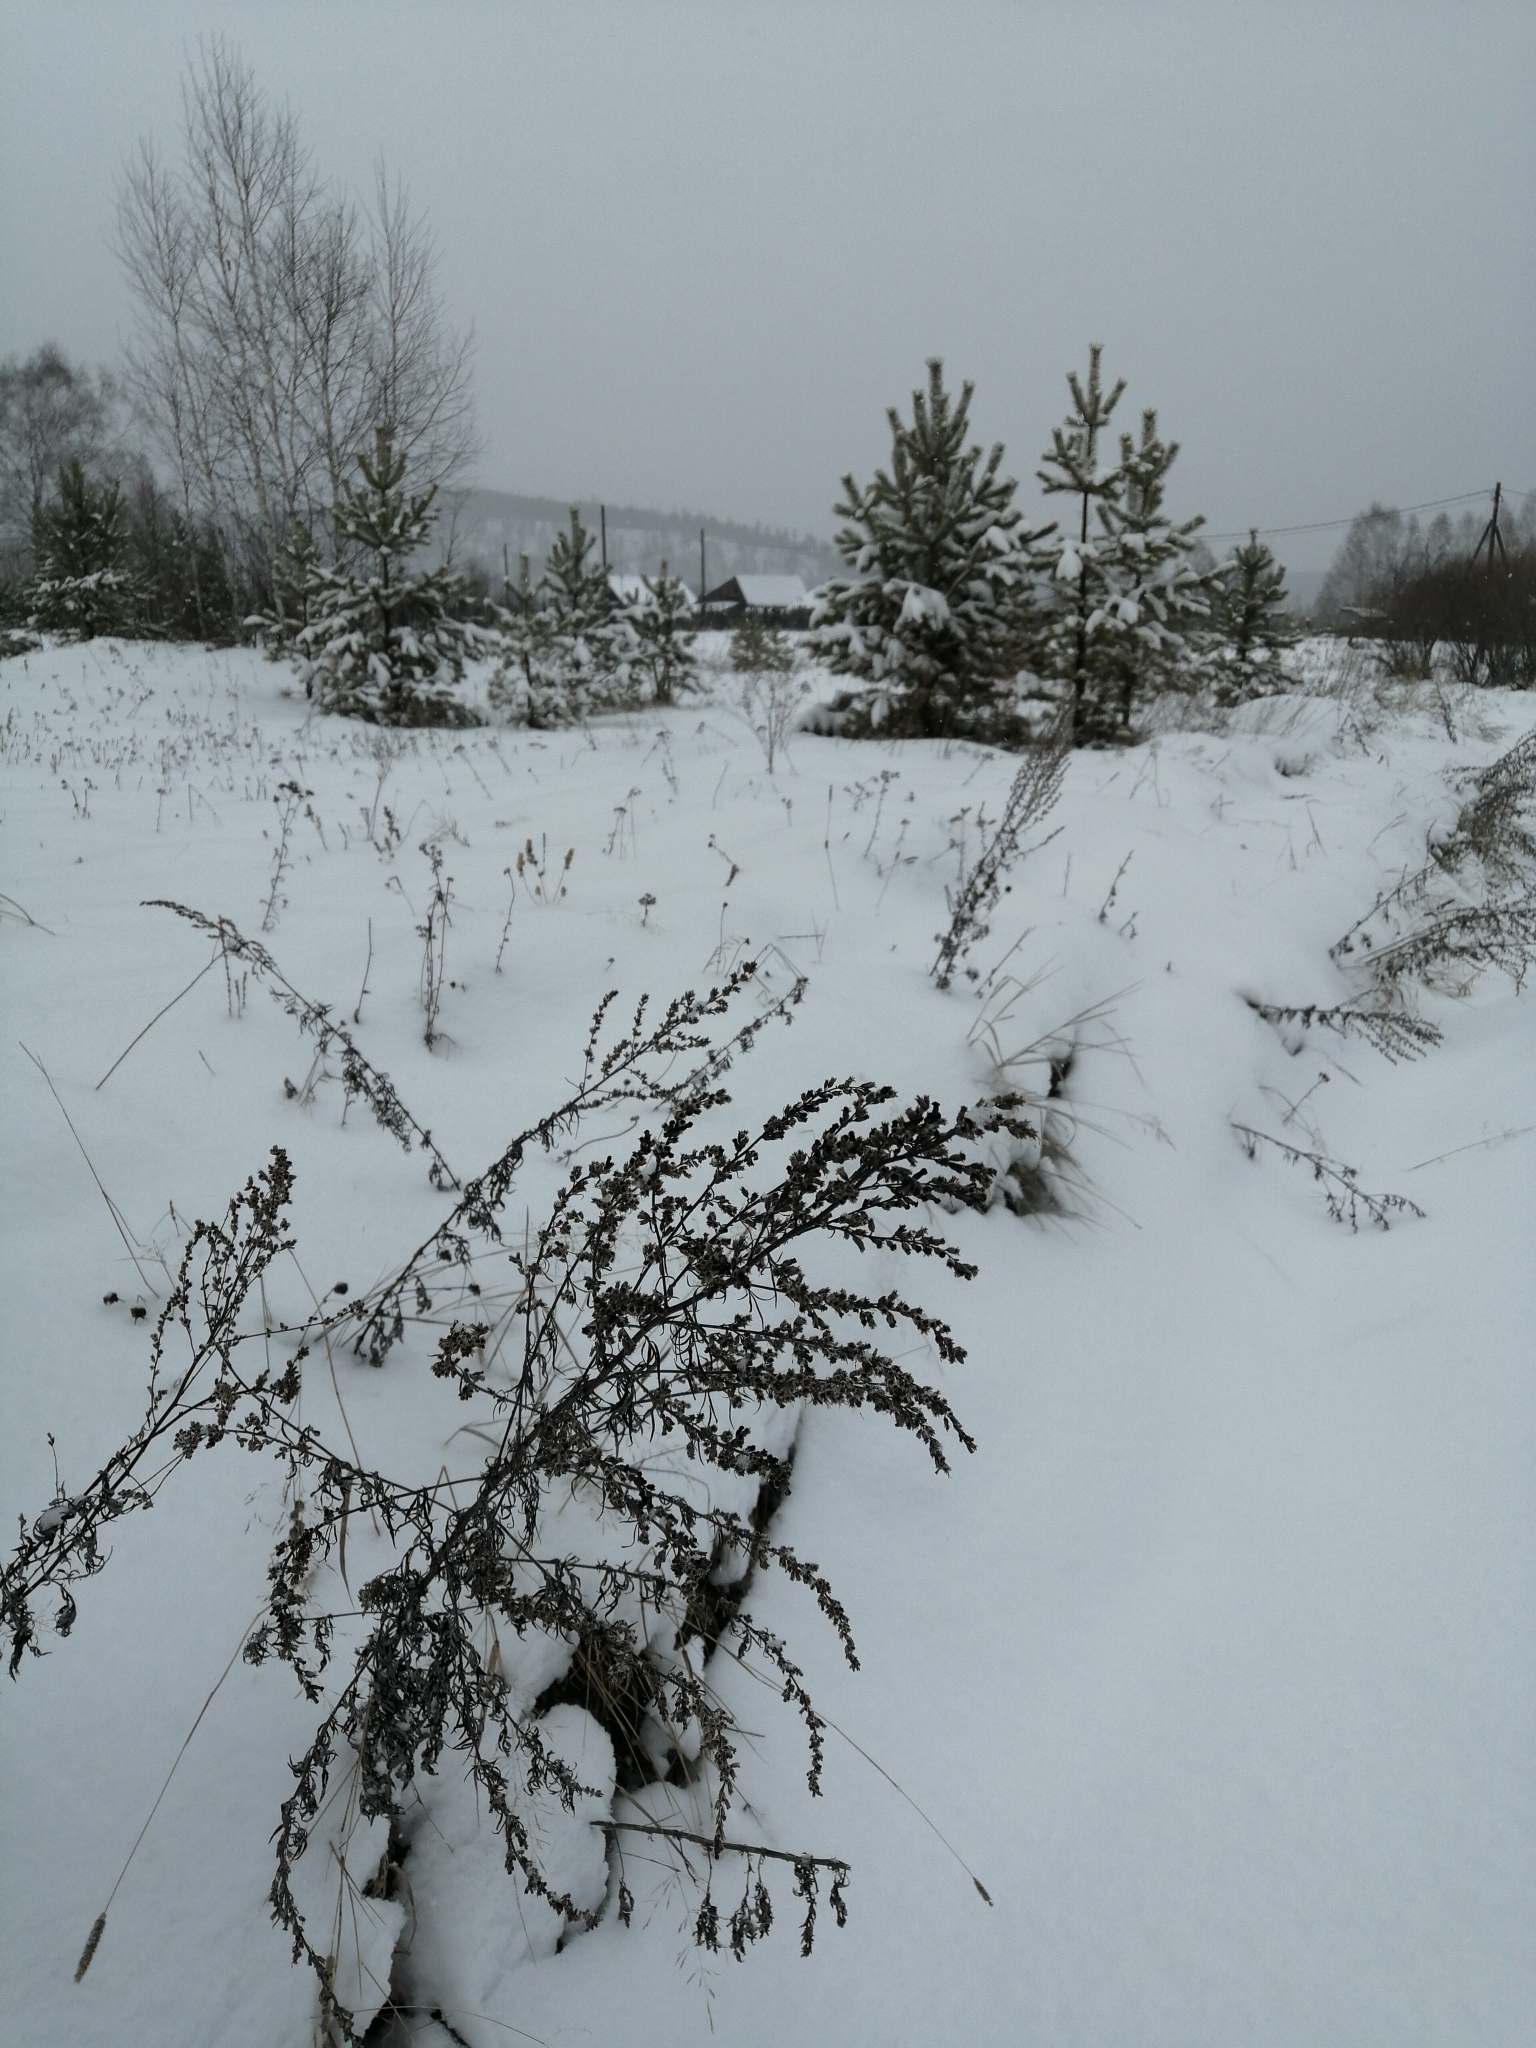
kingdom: Plantae
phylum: Tracheophyta
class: Magnoliopsida
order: Asterales
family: Asteraceae
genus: Artemisia
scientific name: Artemisia vulgaris
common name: Mugwort
